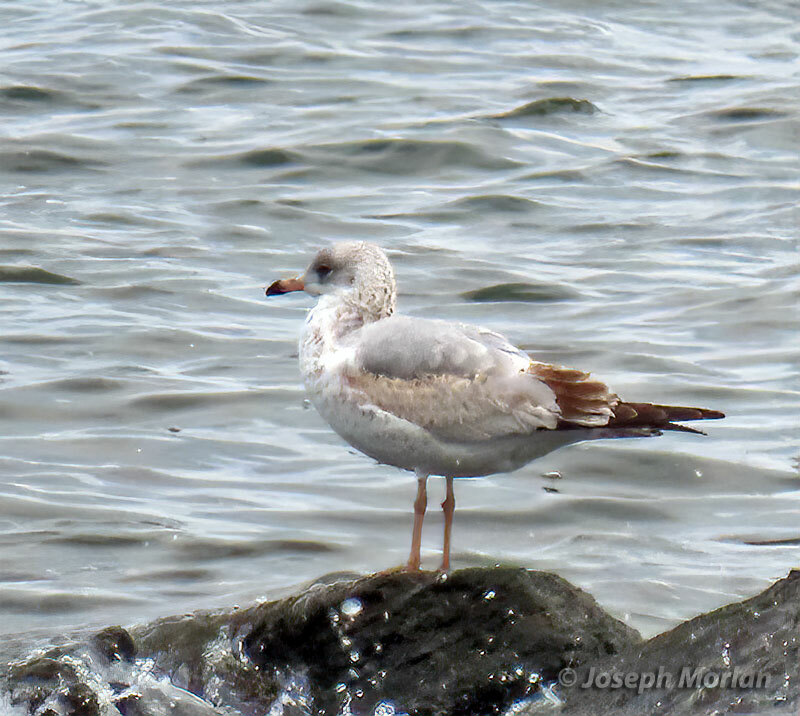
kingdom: Animalia
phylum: Chordata
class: Aves
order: Charadriiformes
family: Laridae
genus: Larus
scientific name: Larus delawarensis
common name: Ring-billed gull
